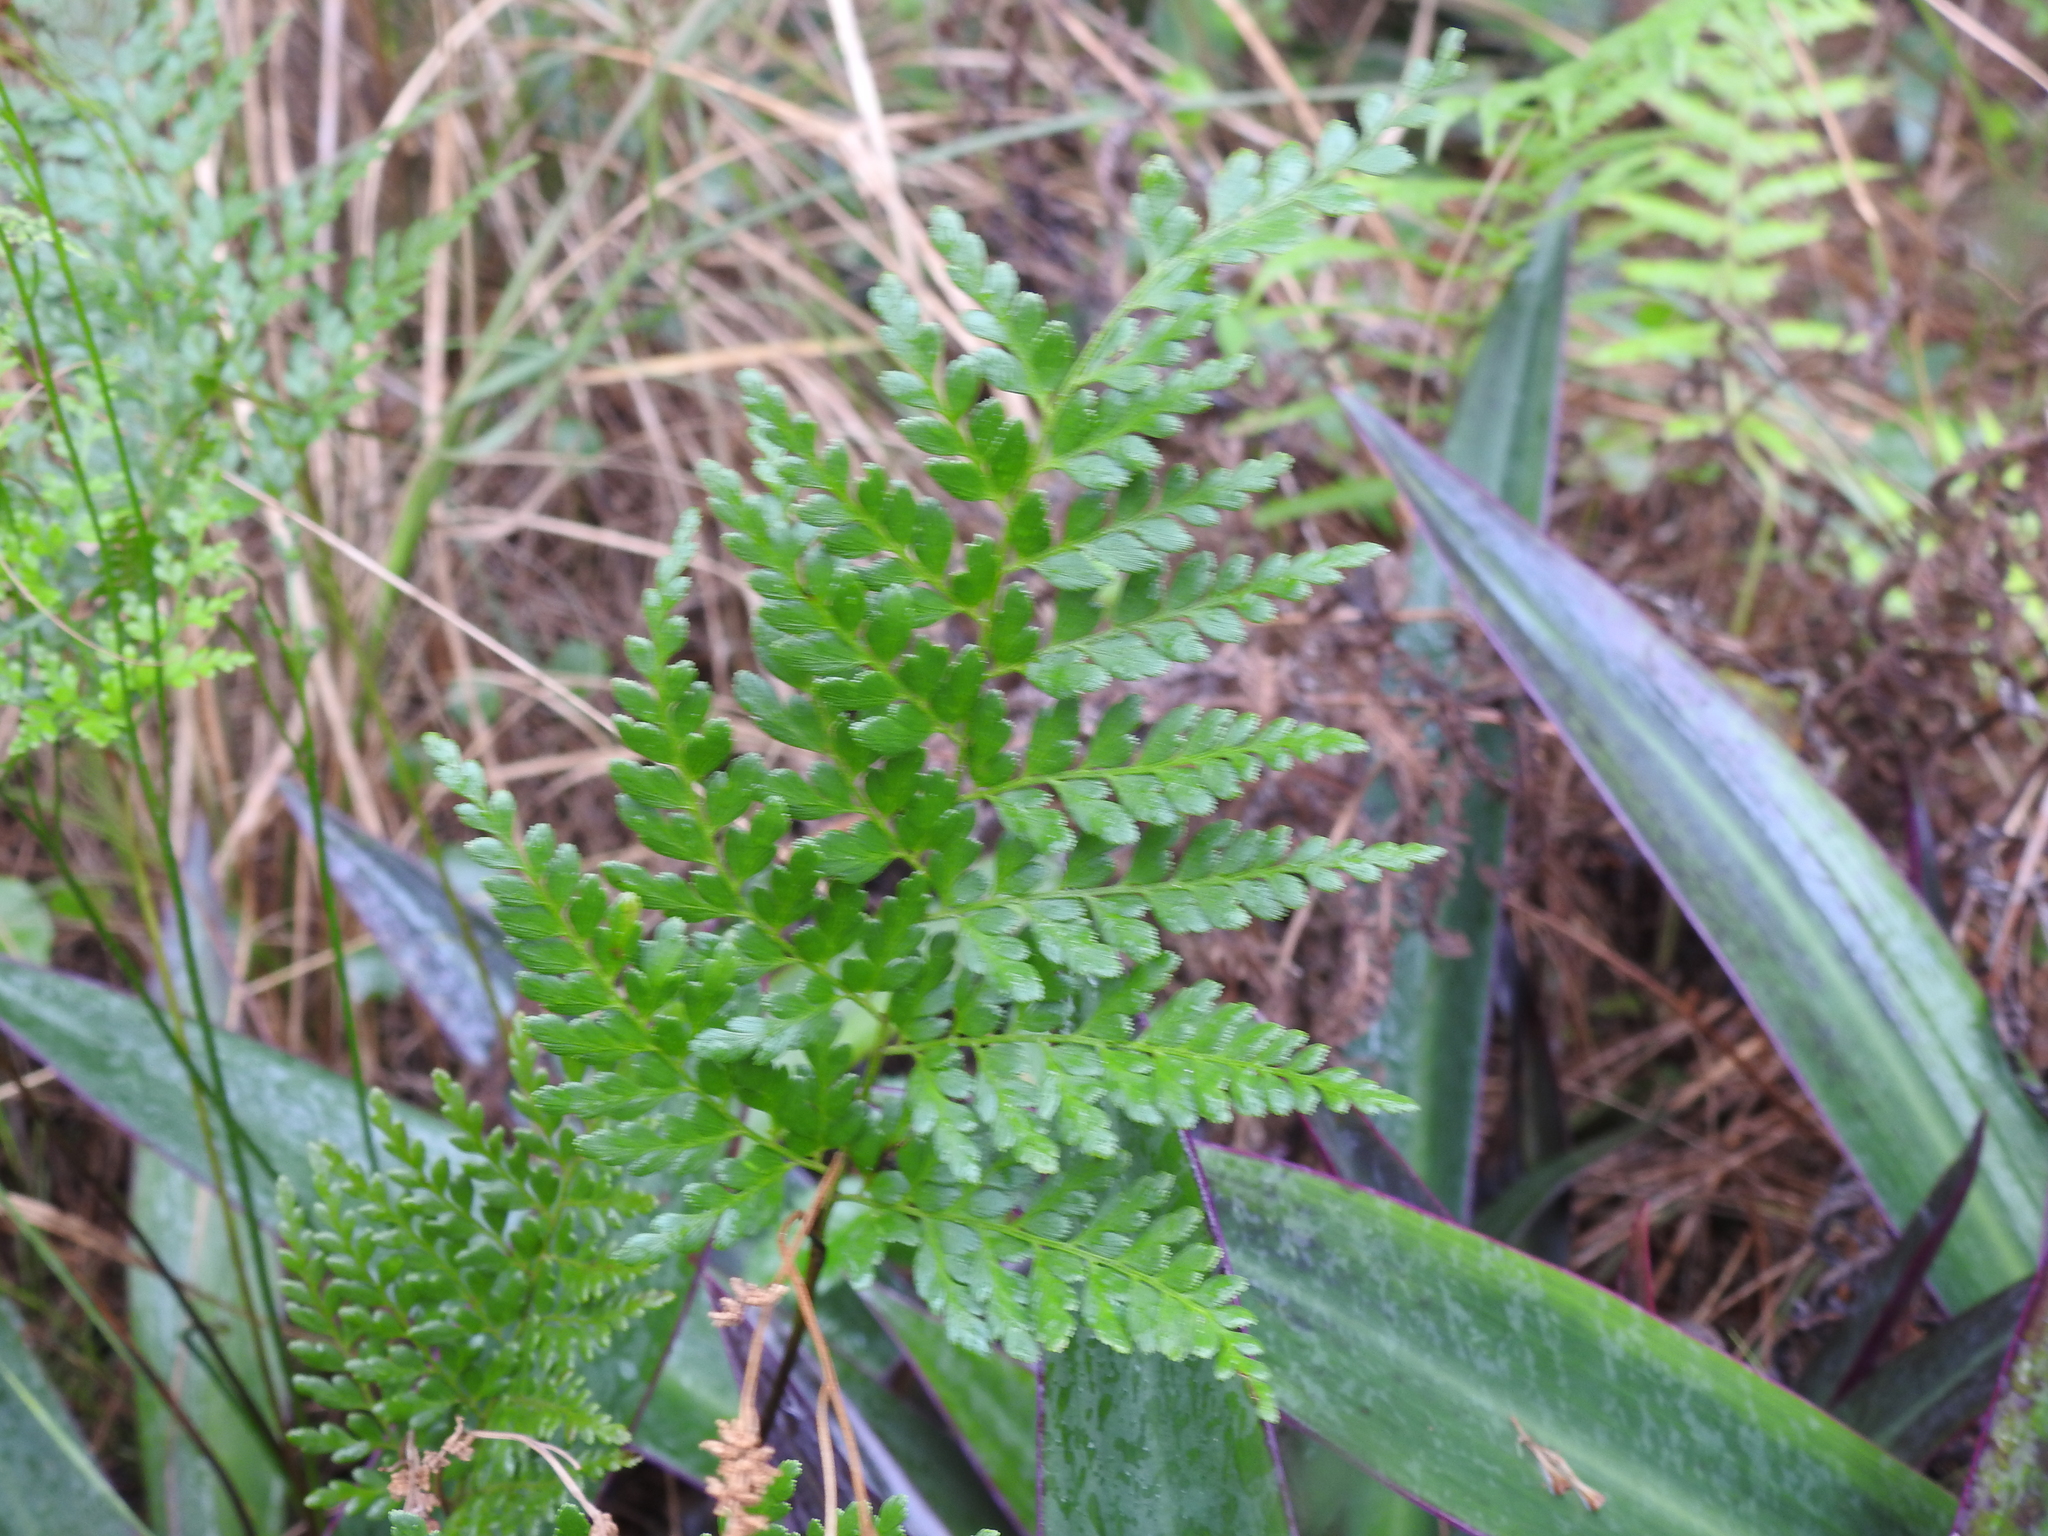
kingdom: Plantae
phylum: Tracheophyta
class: Polypodiopsida
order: Schizaeales
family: Anemiaceae
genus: Anemia
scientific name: Anemia adiantifolia
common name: Pine fern
